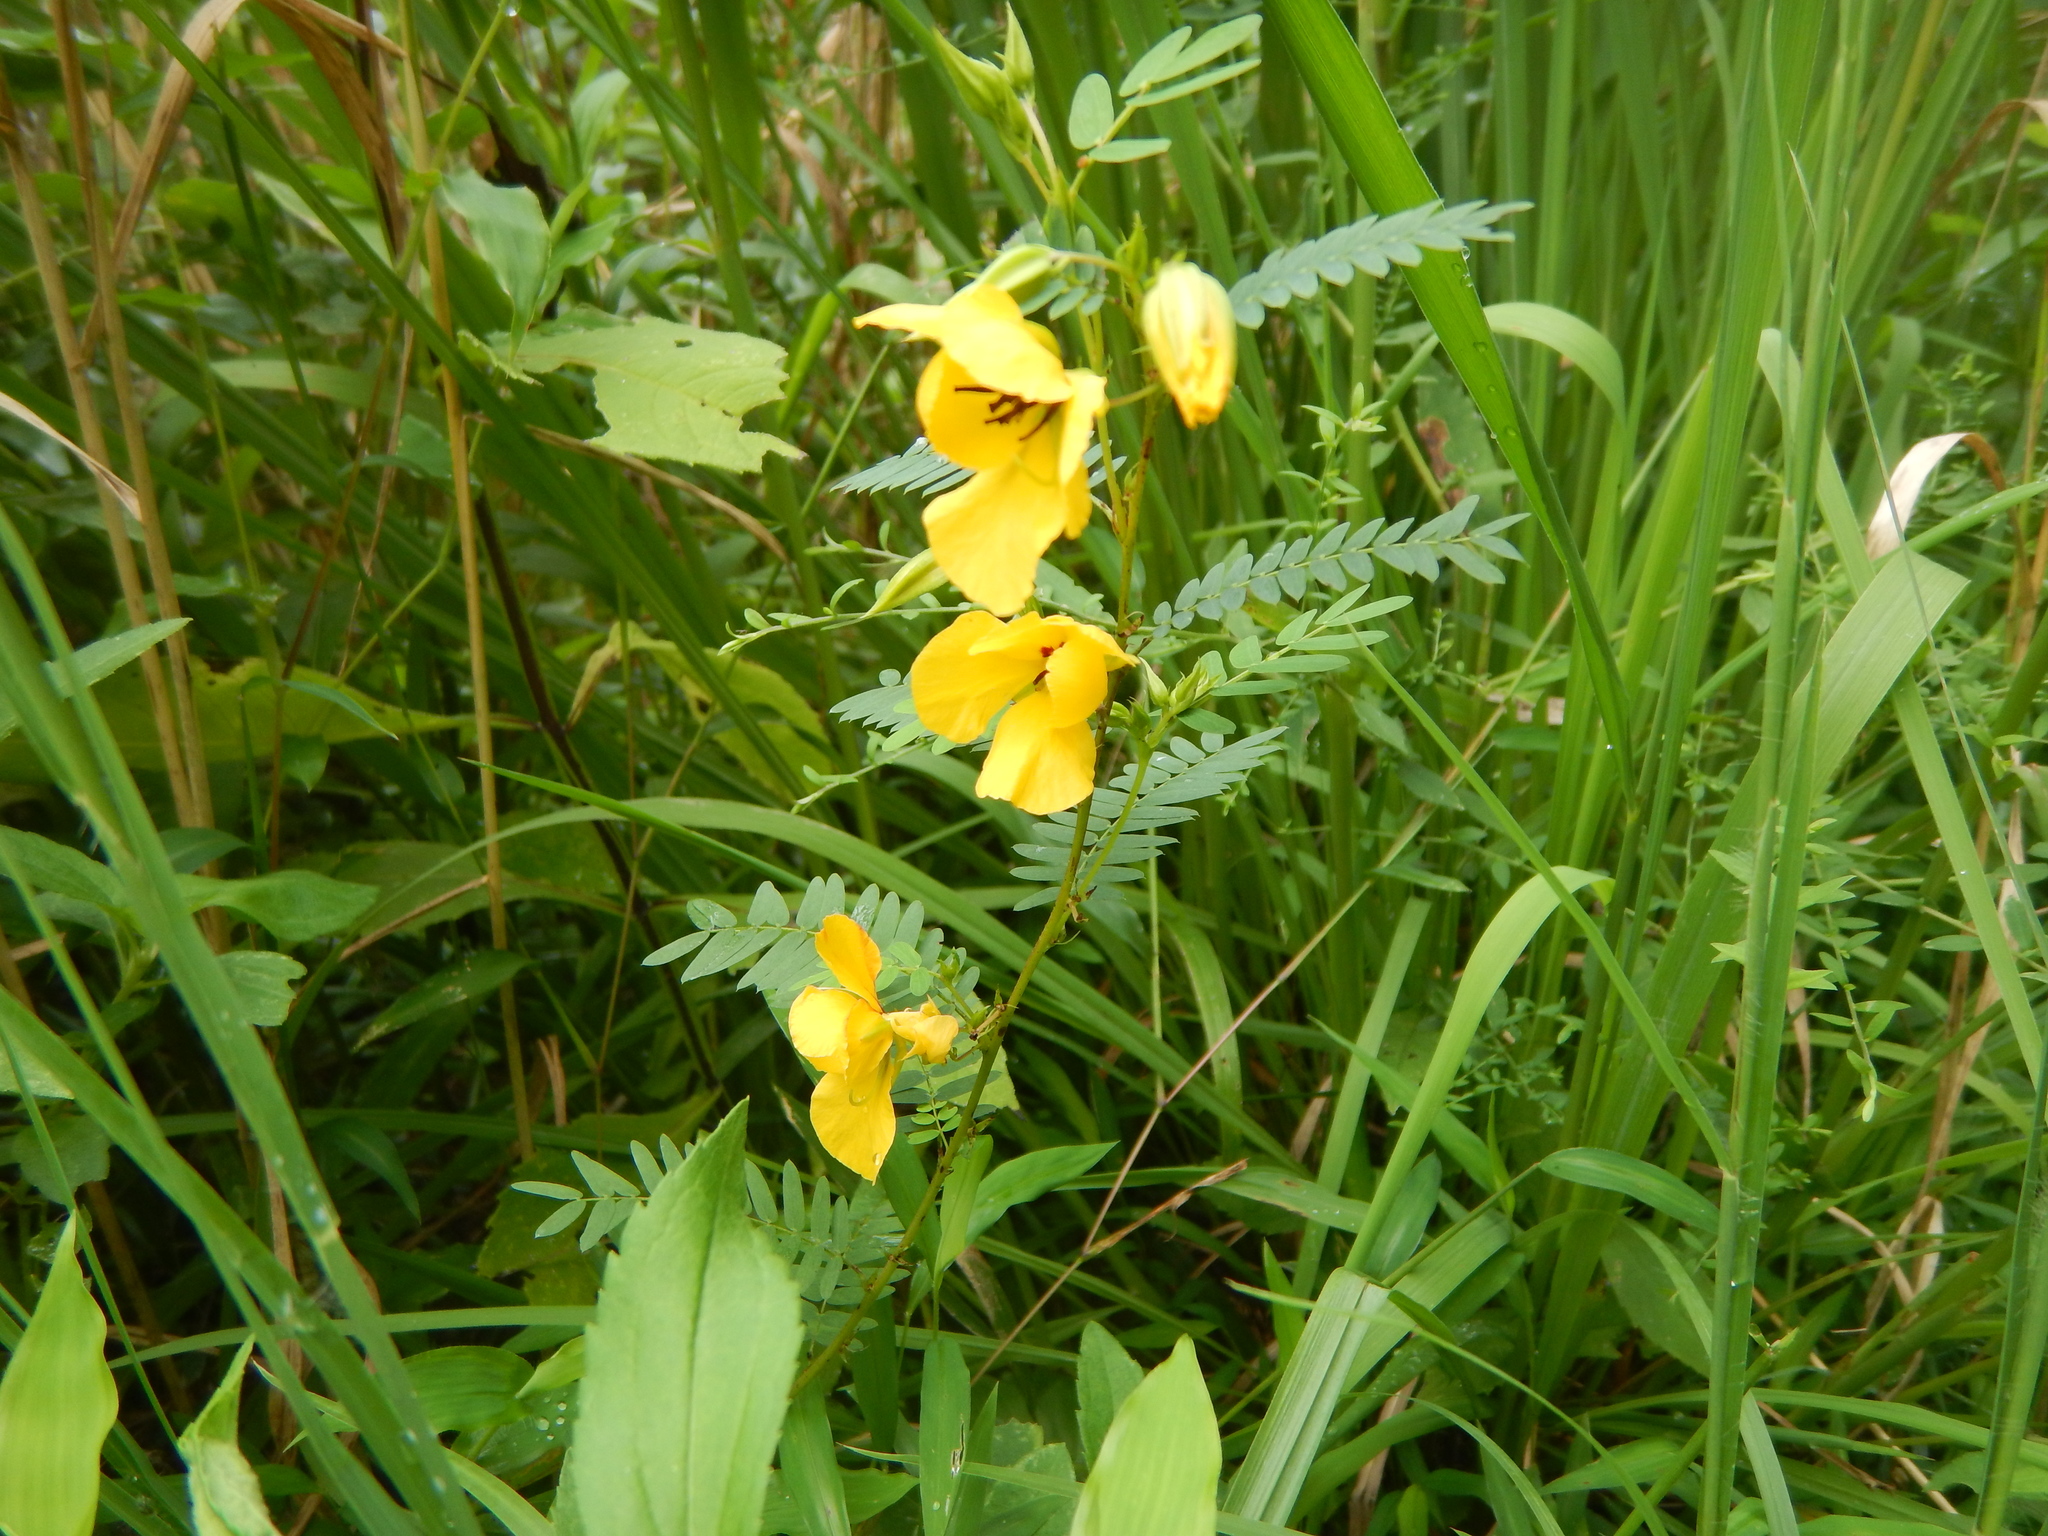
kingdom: Plantae
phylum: Tracheophyta
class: Magnoliopsida
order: Fabales
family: Fabaceae
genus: Chamaecrista
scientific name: Chamaecrista fasciculata
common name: Golden cassia
